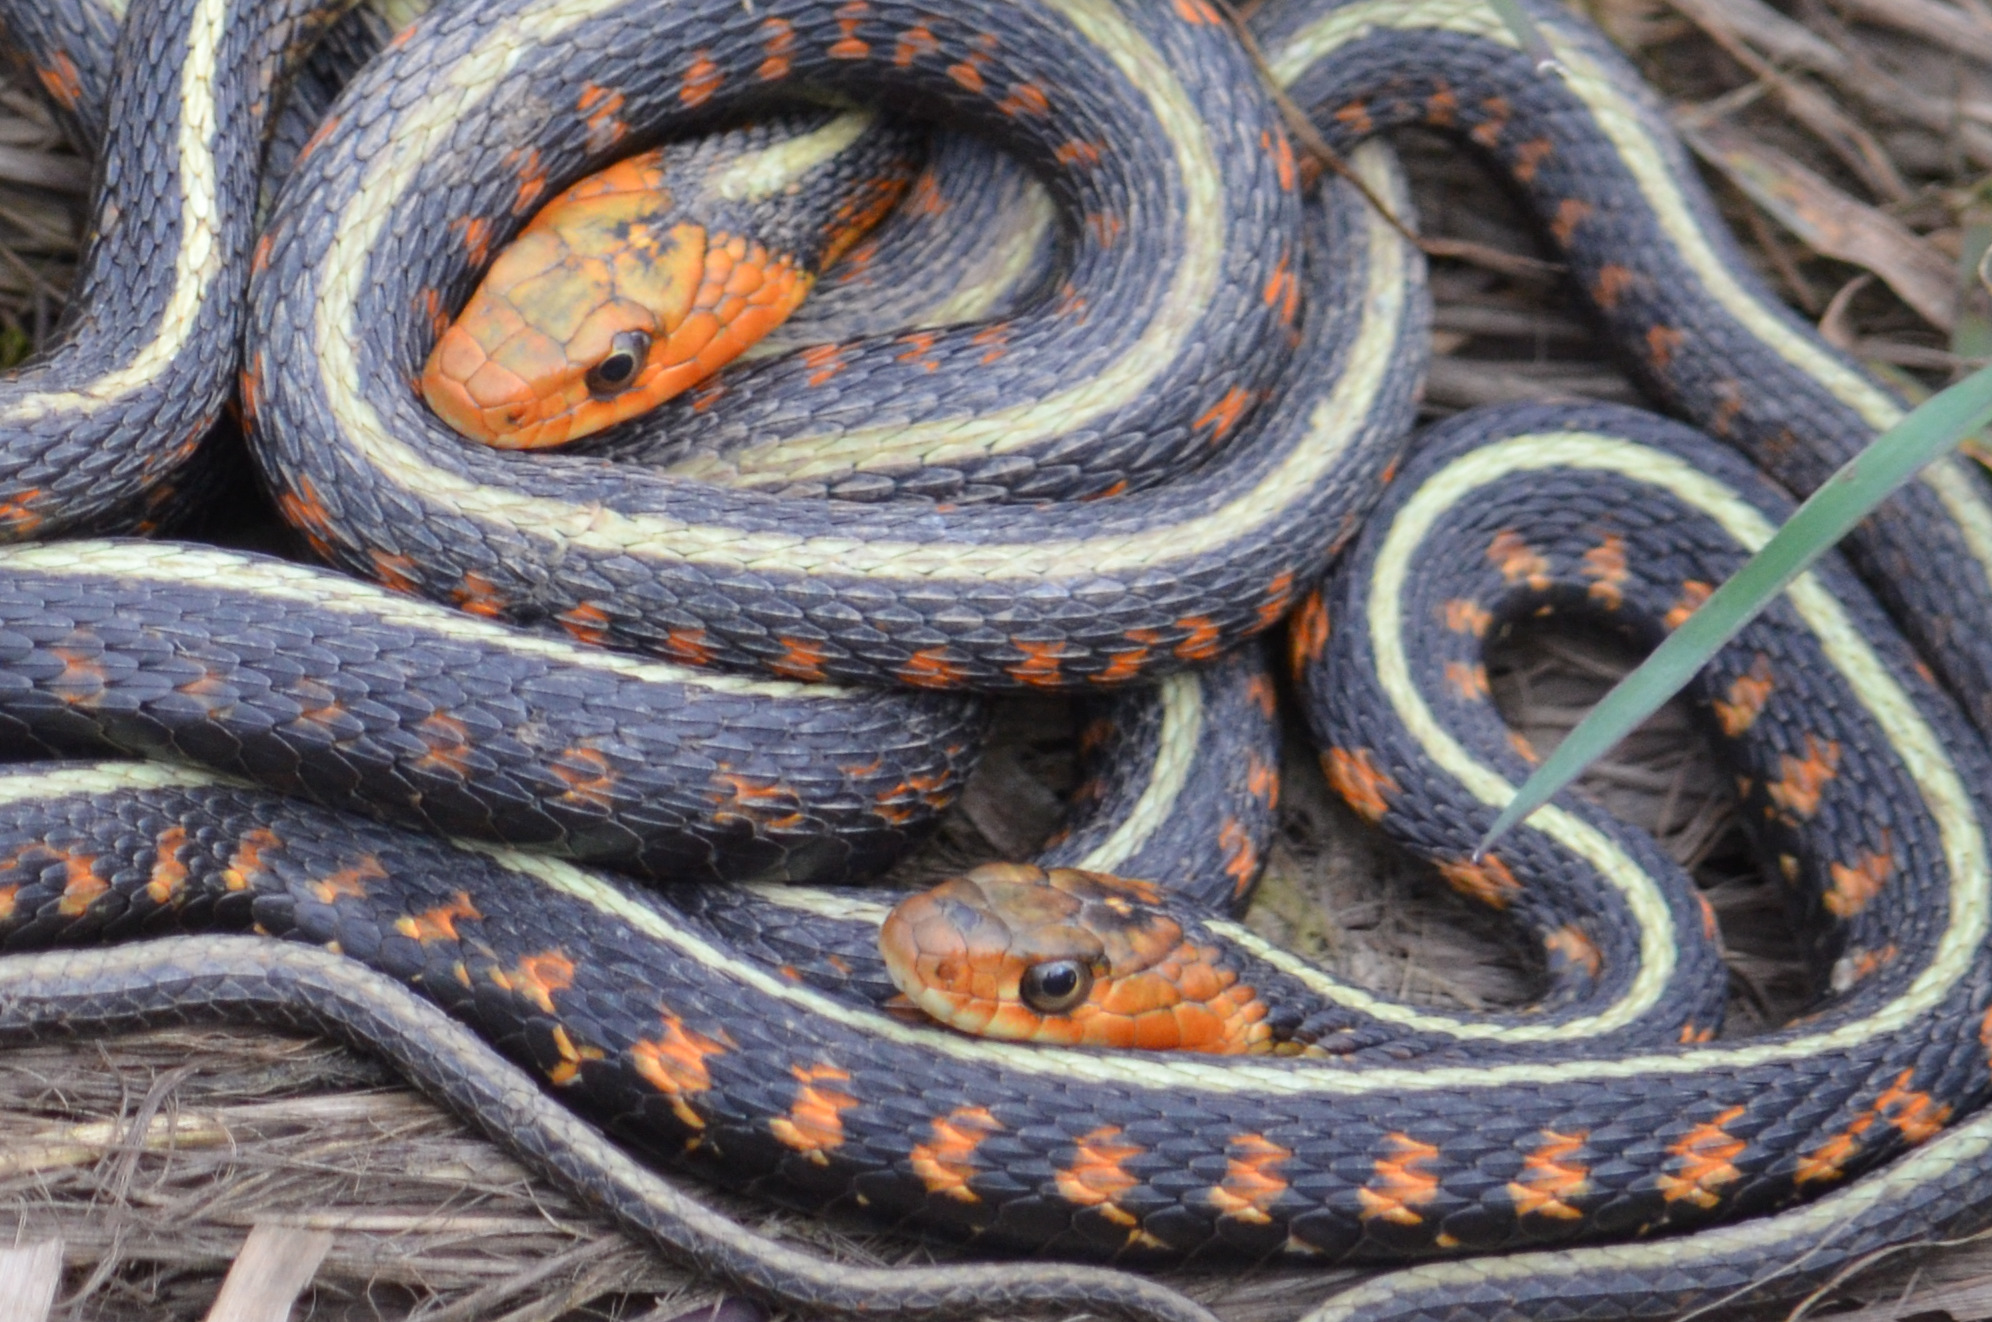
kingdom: Animalia
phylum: Chordata
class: Squamata
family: Colubridae
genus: Thamnophis
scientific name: Thamnophis sirtalis
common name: Common garter snake
